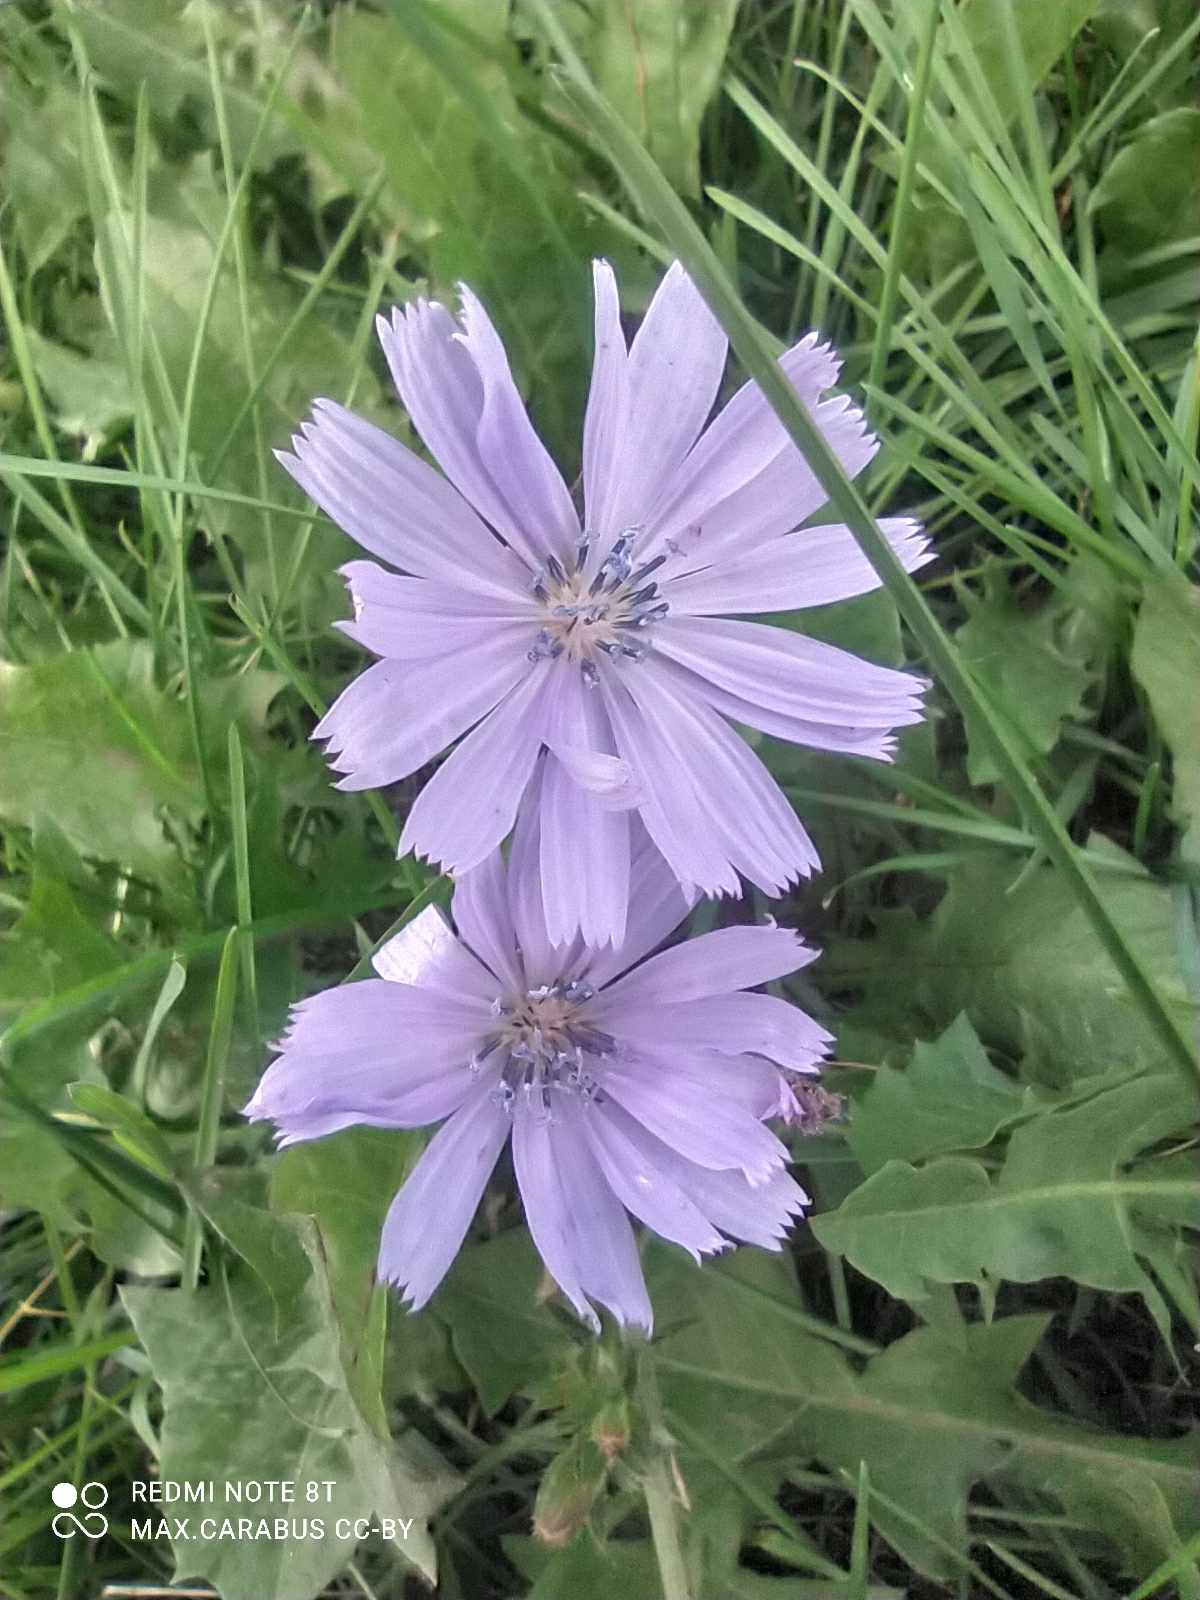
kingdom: Plantae
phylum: Tracheophyta
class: Magnoliopsida
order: Asterales
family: Asteraceae
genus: Cichorium
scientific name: Cichorium intybus
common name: Chicory
